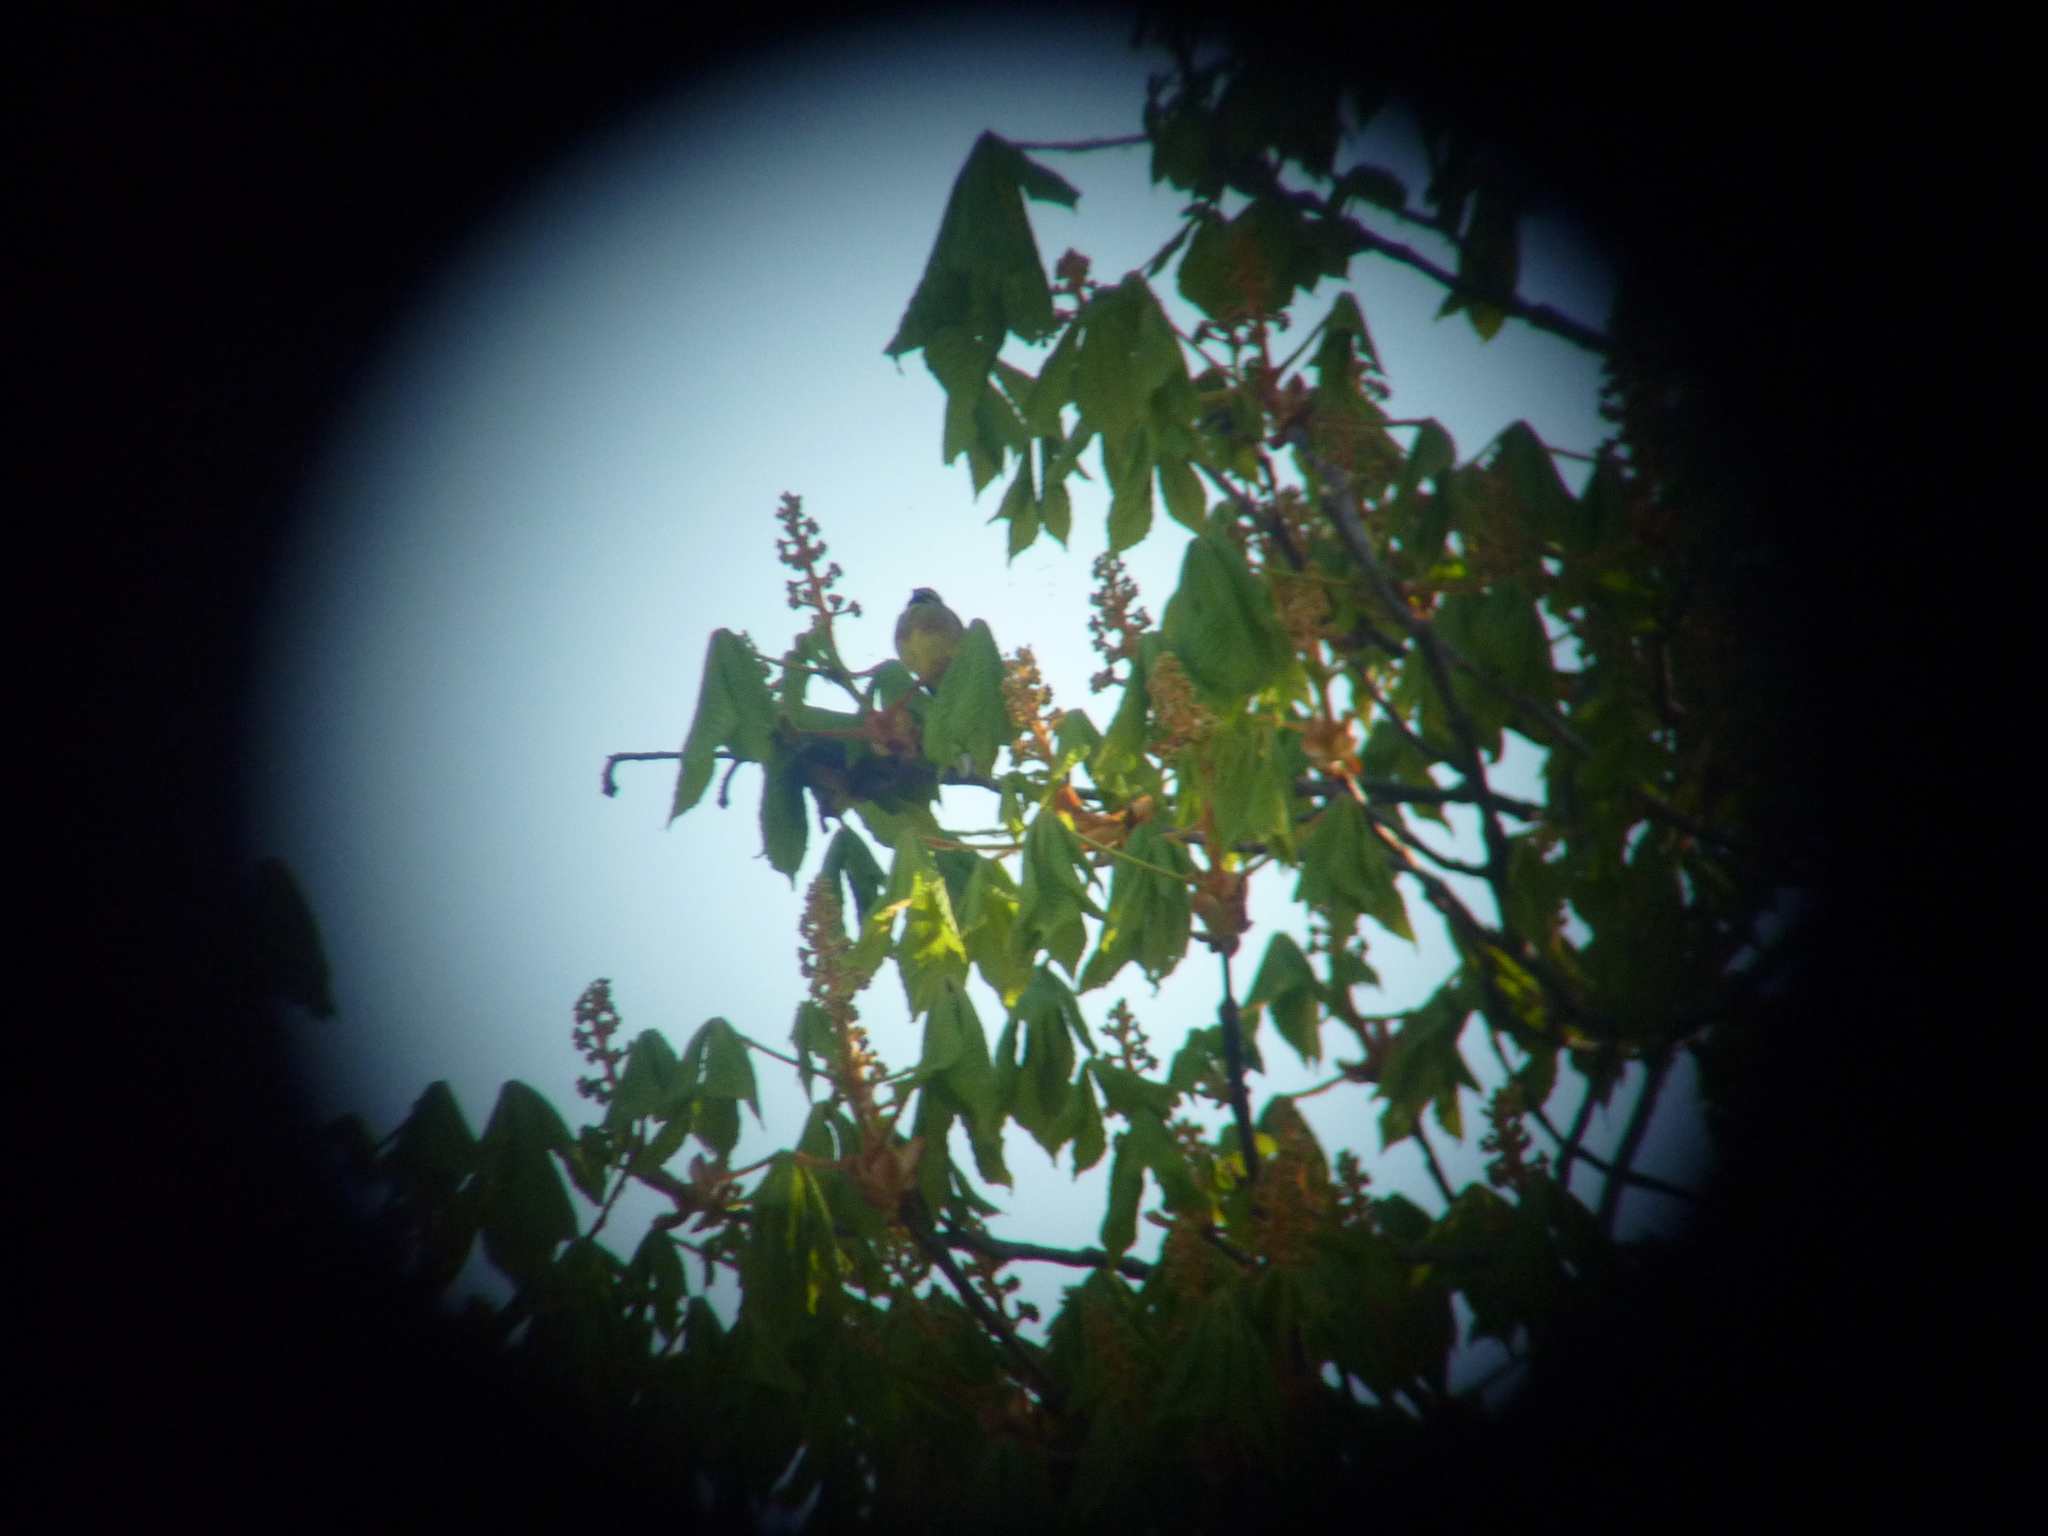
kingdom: Animalia
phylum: Chordata
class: Aves
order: Passeriformes
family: Emberizidae
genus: Emberiza
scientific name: Emberiza cirlus
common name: Cirl bunting
